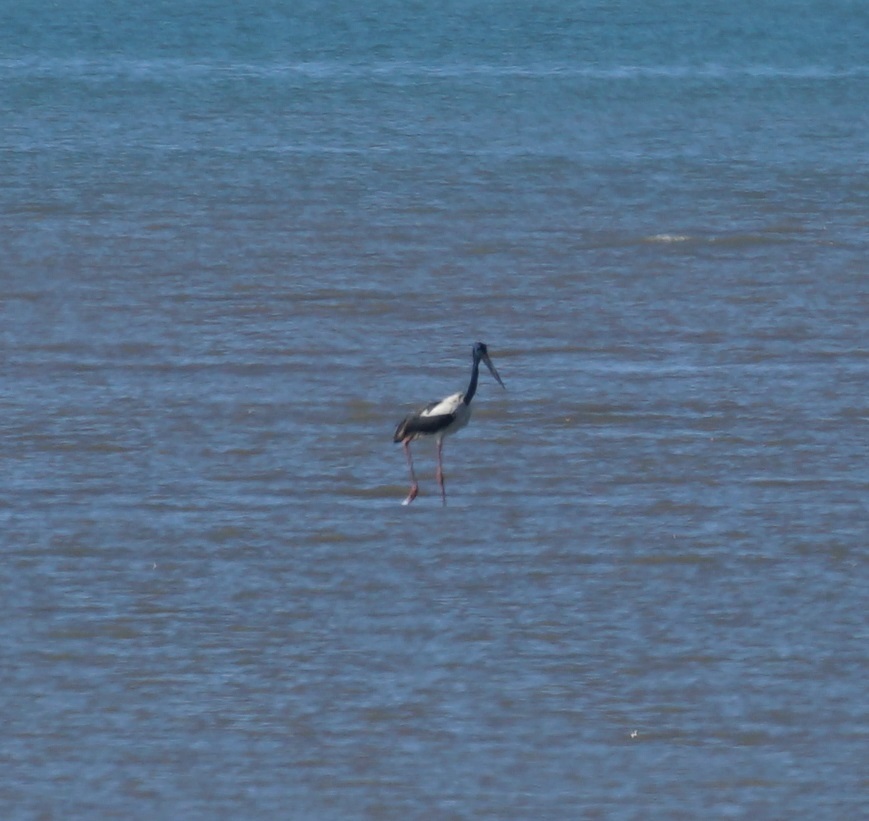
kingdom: Animalia
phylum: Chordata
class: Aves
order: Ciconiiformes
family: Ciconiidae
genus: Ephippiorhynchus
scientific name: Ephippiorhynchus asiaticus
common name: Black-necked stork
